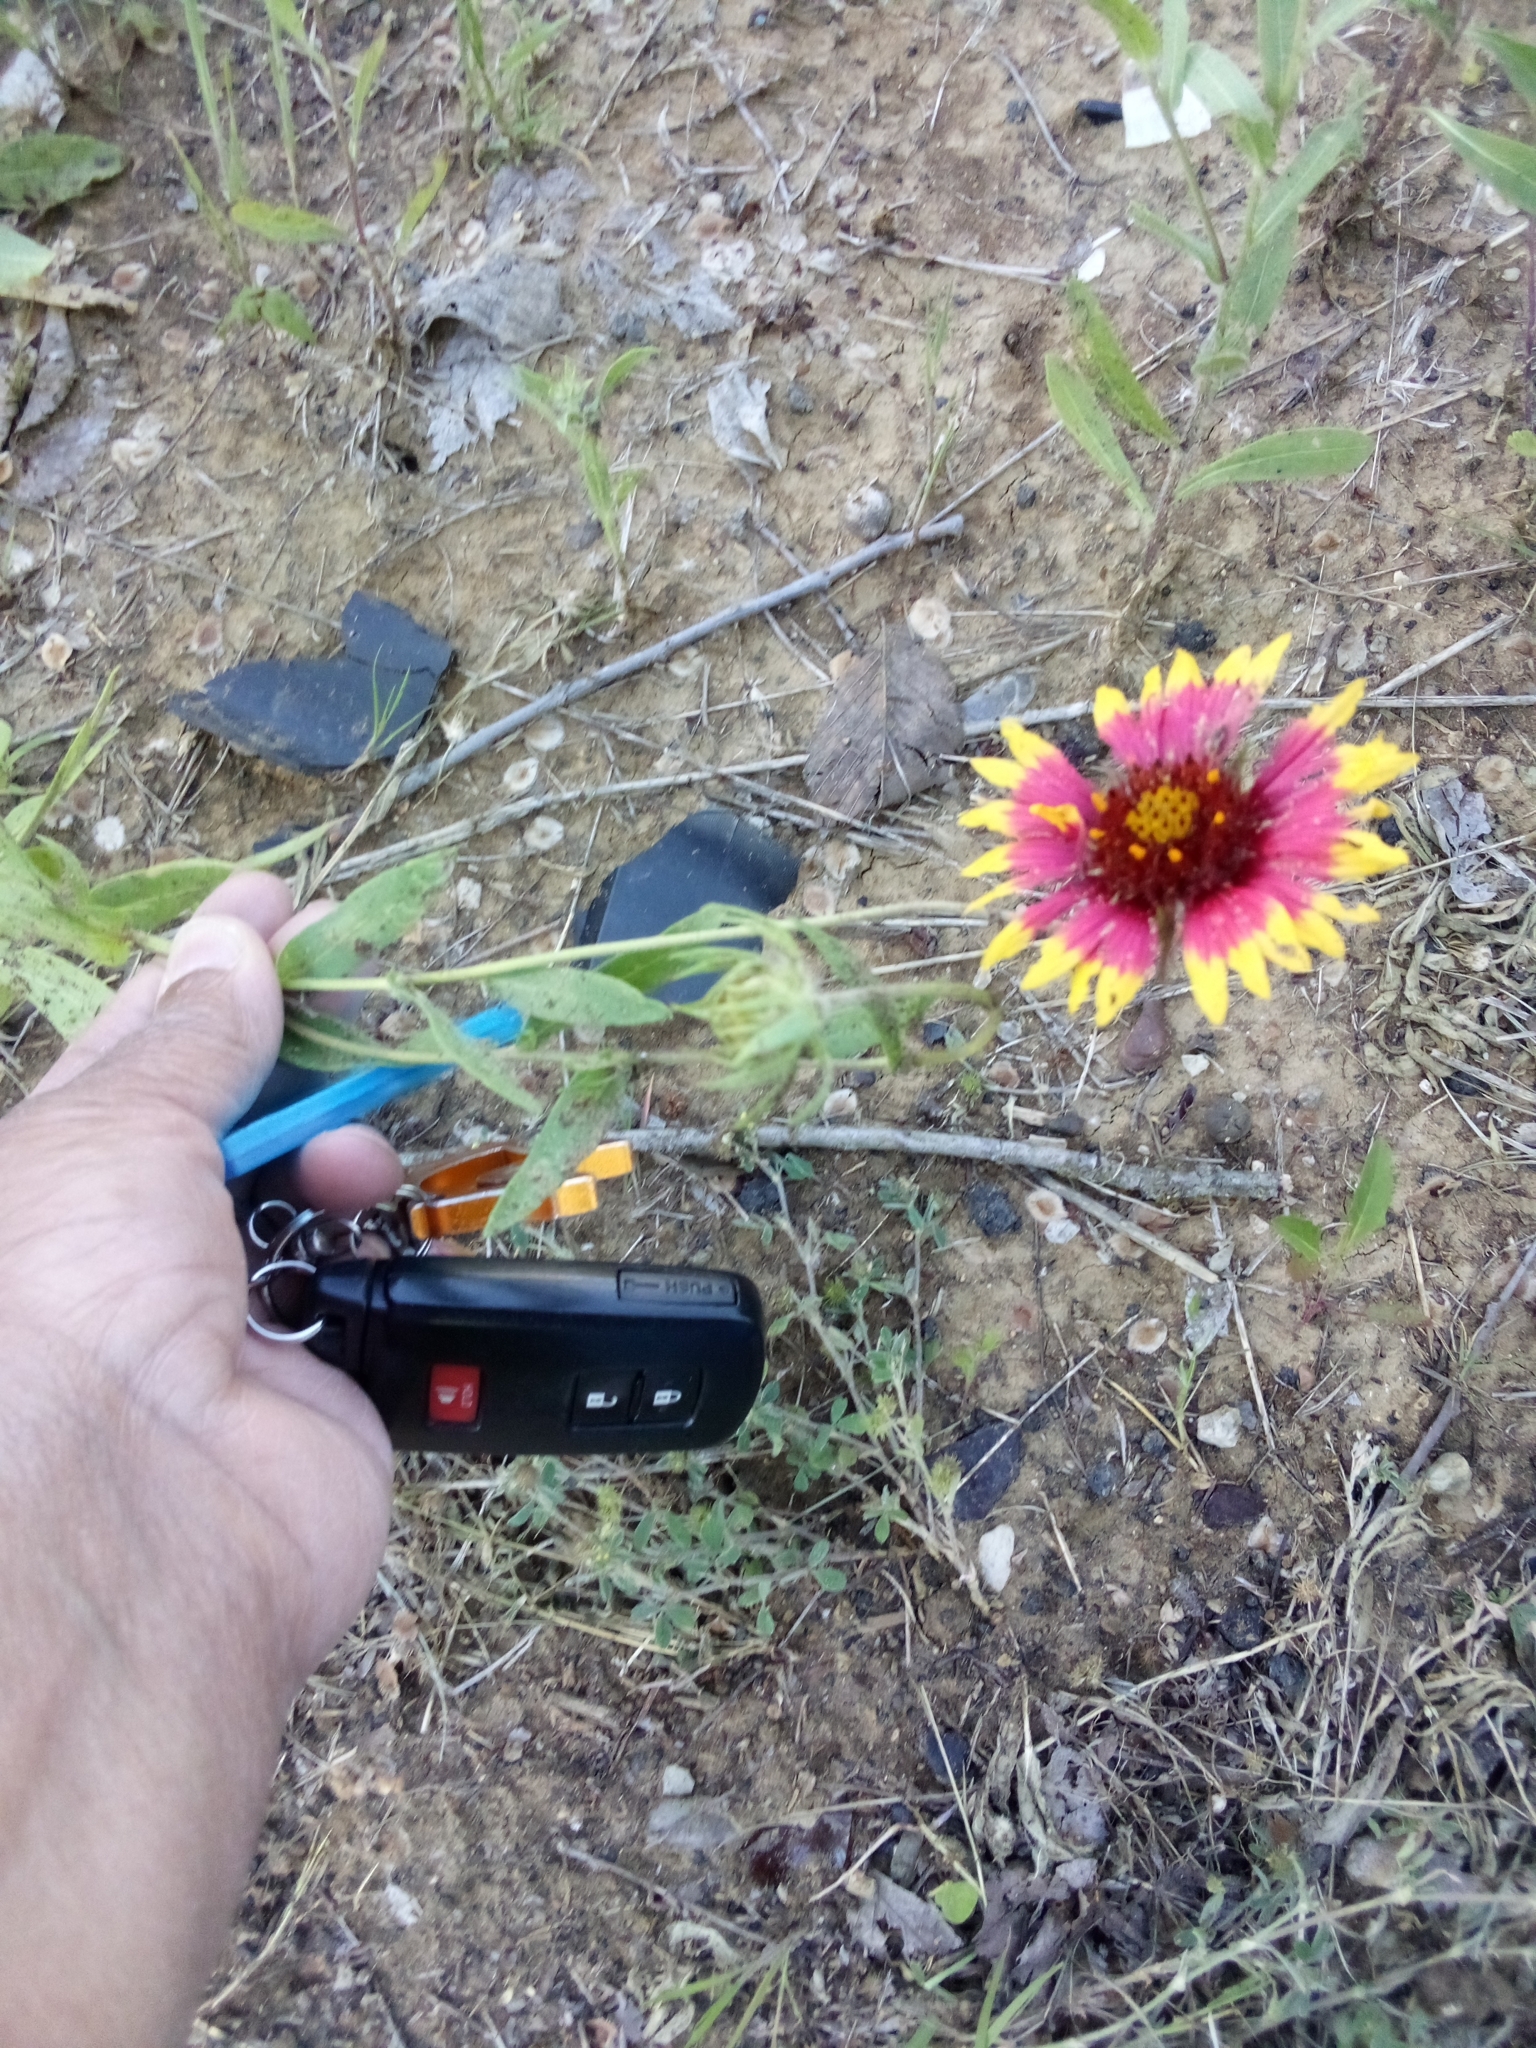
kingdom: Plantae
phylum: Tracheophyta
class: Magnoliopsida
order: Asterales
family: Asteraceae
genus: Gaillardia
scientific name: Gaillardia pulchella
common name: Firewheel
